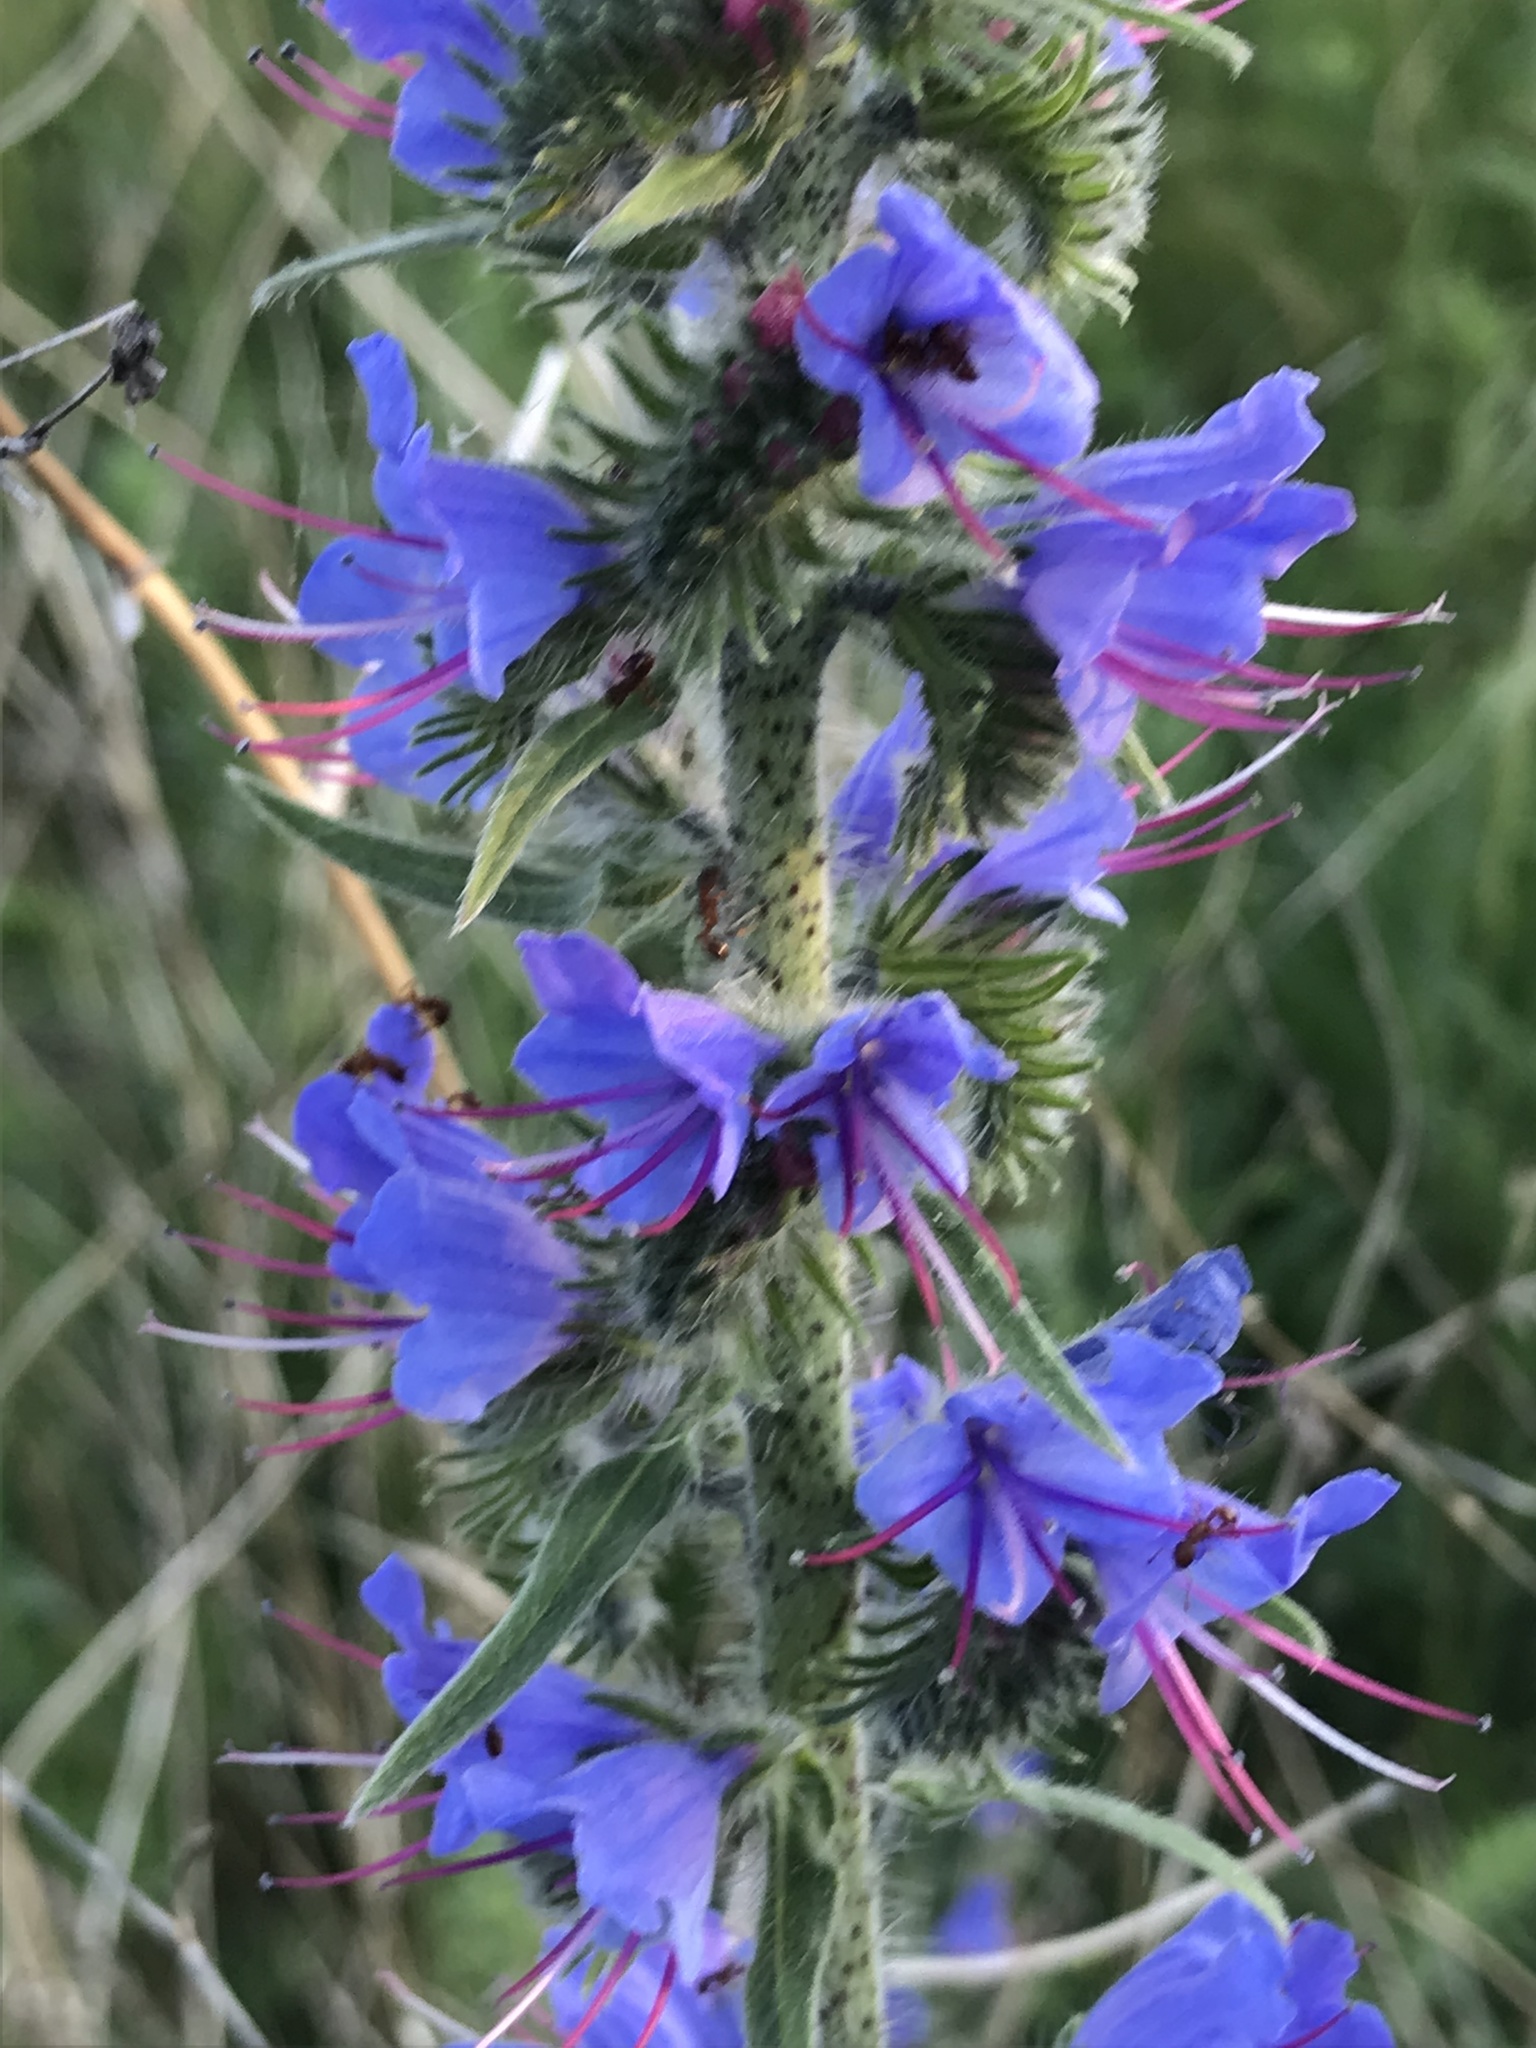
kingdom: Plantae
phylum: Tracheophyta
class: Magnoliopsida
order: Boraginales
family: Boraginaceae
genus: Echium
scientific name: Echium vulgare
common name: Common viper's bugloss
